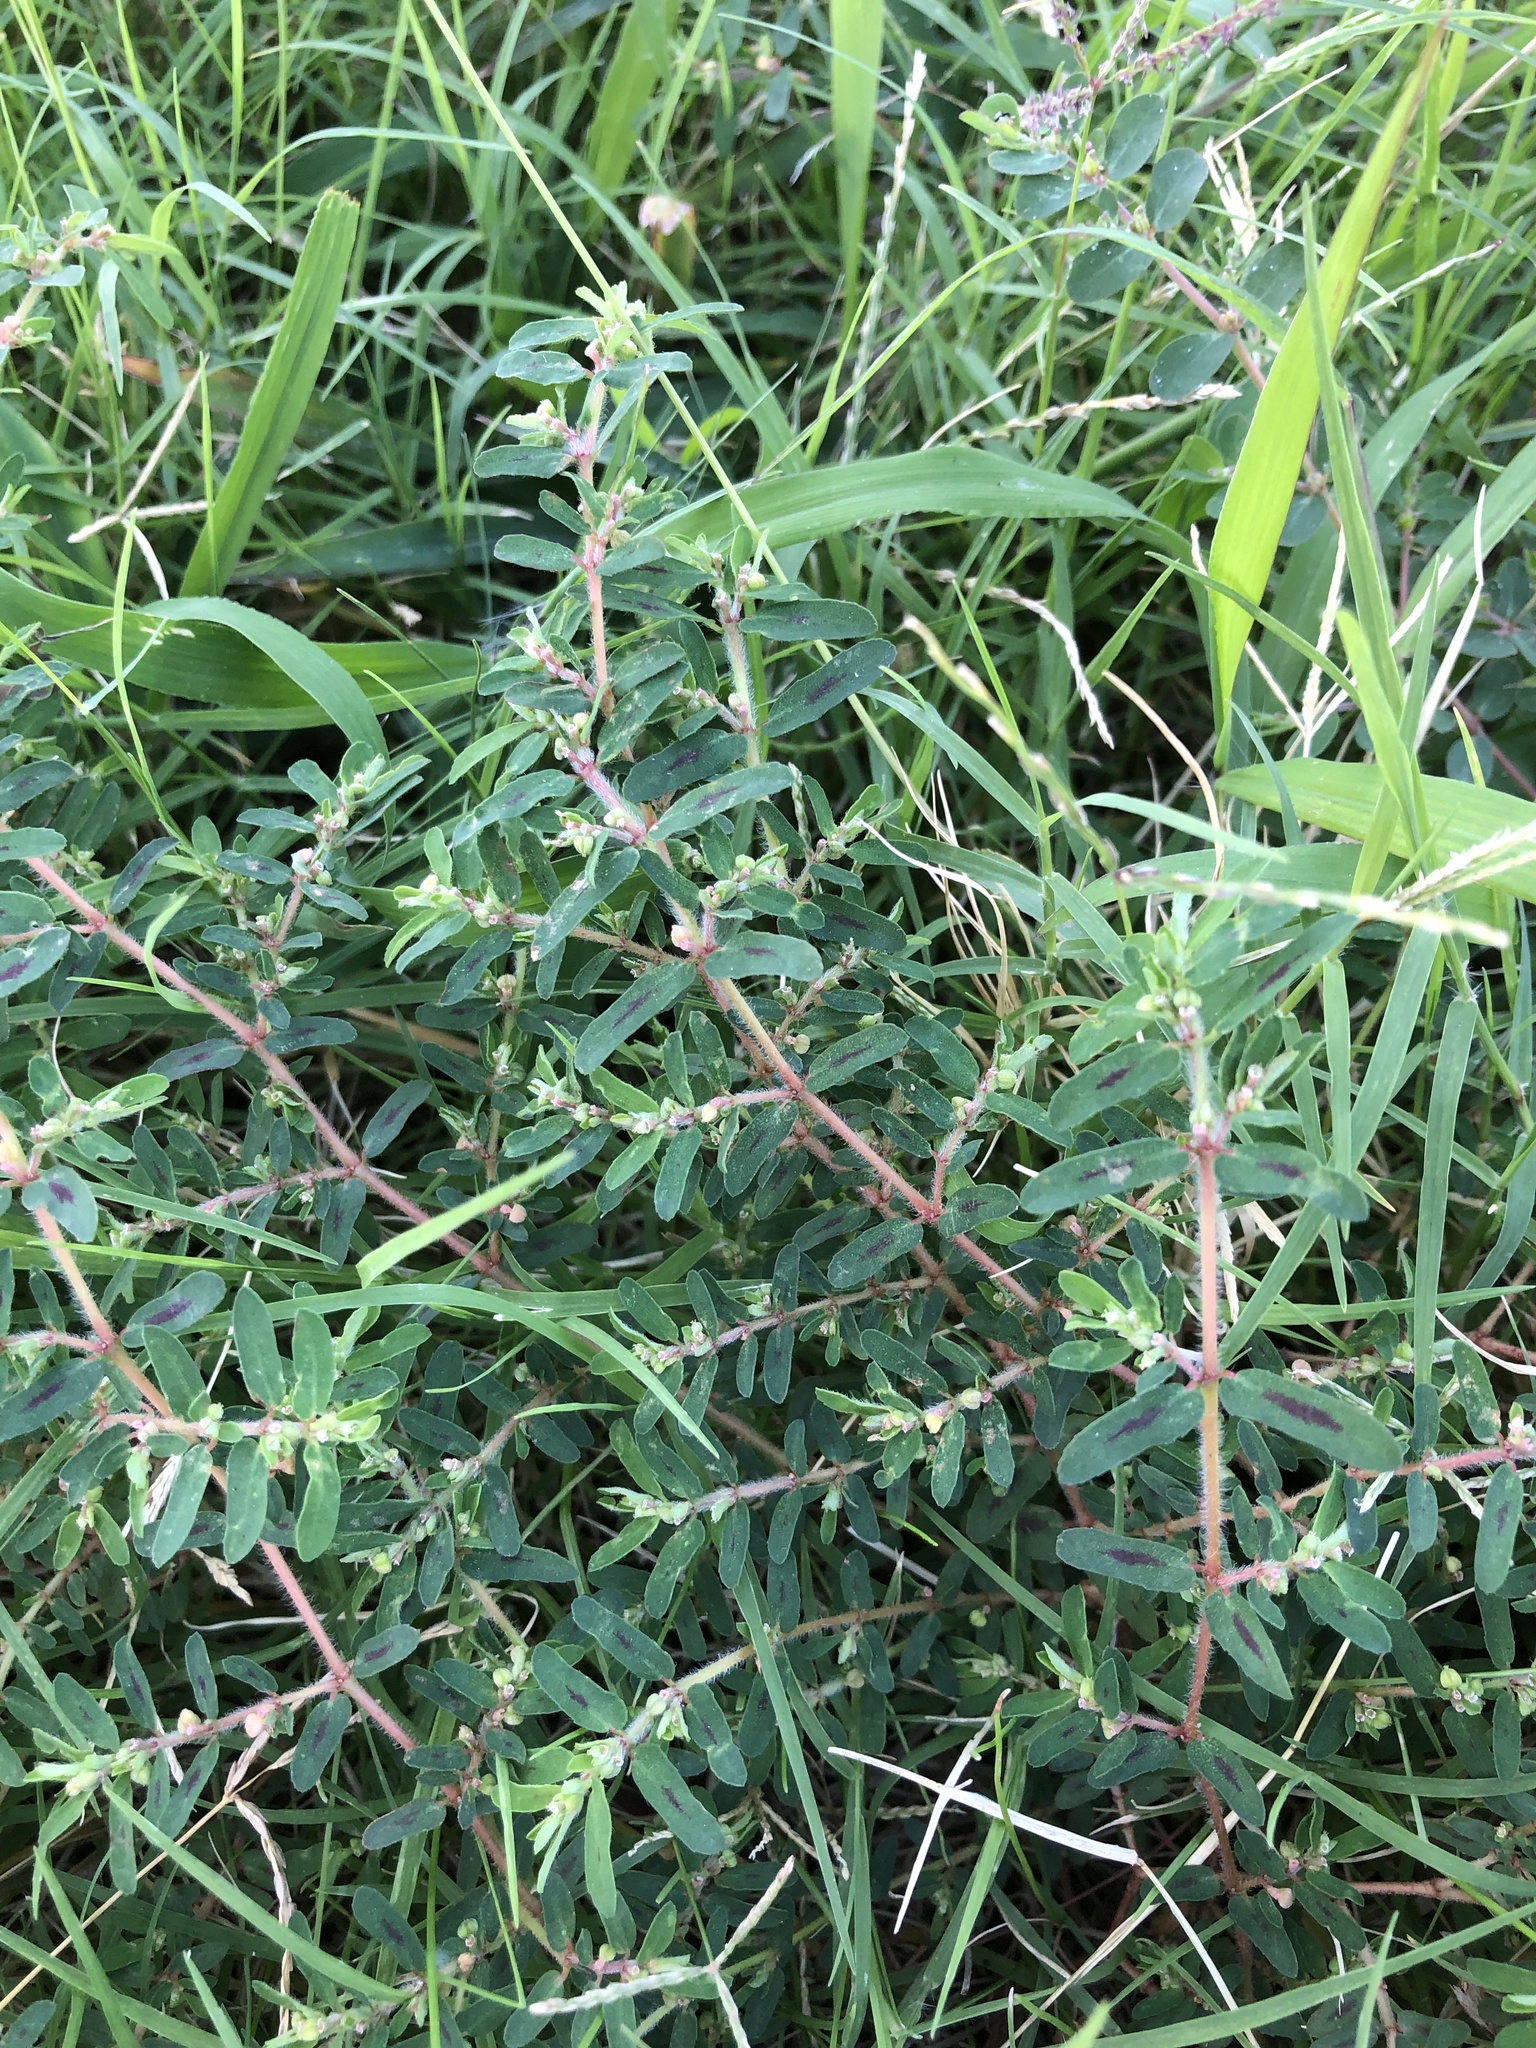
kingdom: Plantae
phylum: Tracheophyta
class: Magnoliopsida
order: Malpighiales
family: Euphorbiaceae
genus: Euphorbia
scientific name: Euphorbia maculata
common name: Spotted spurge
